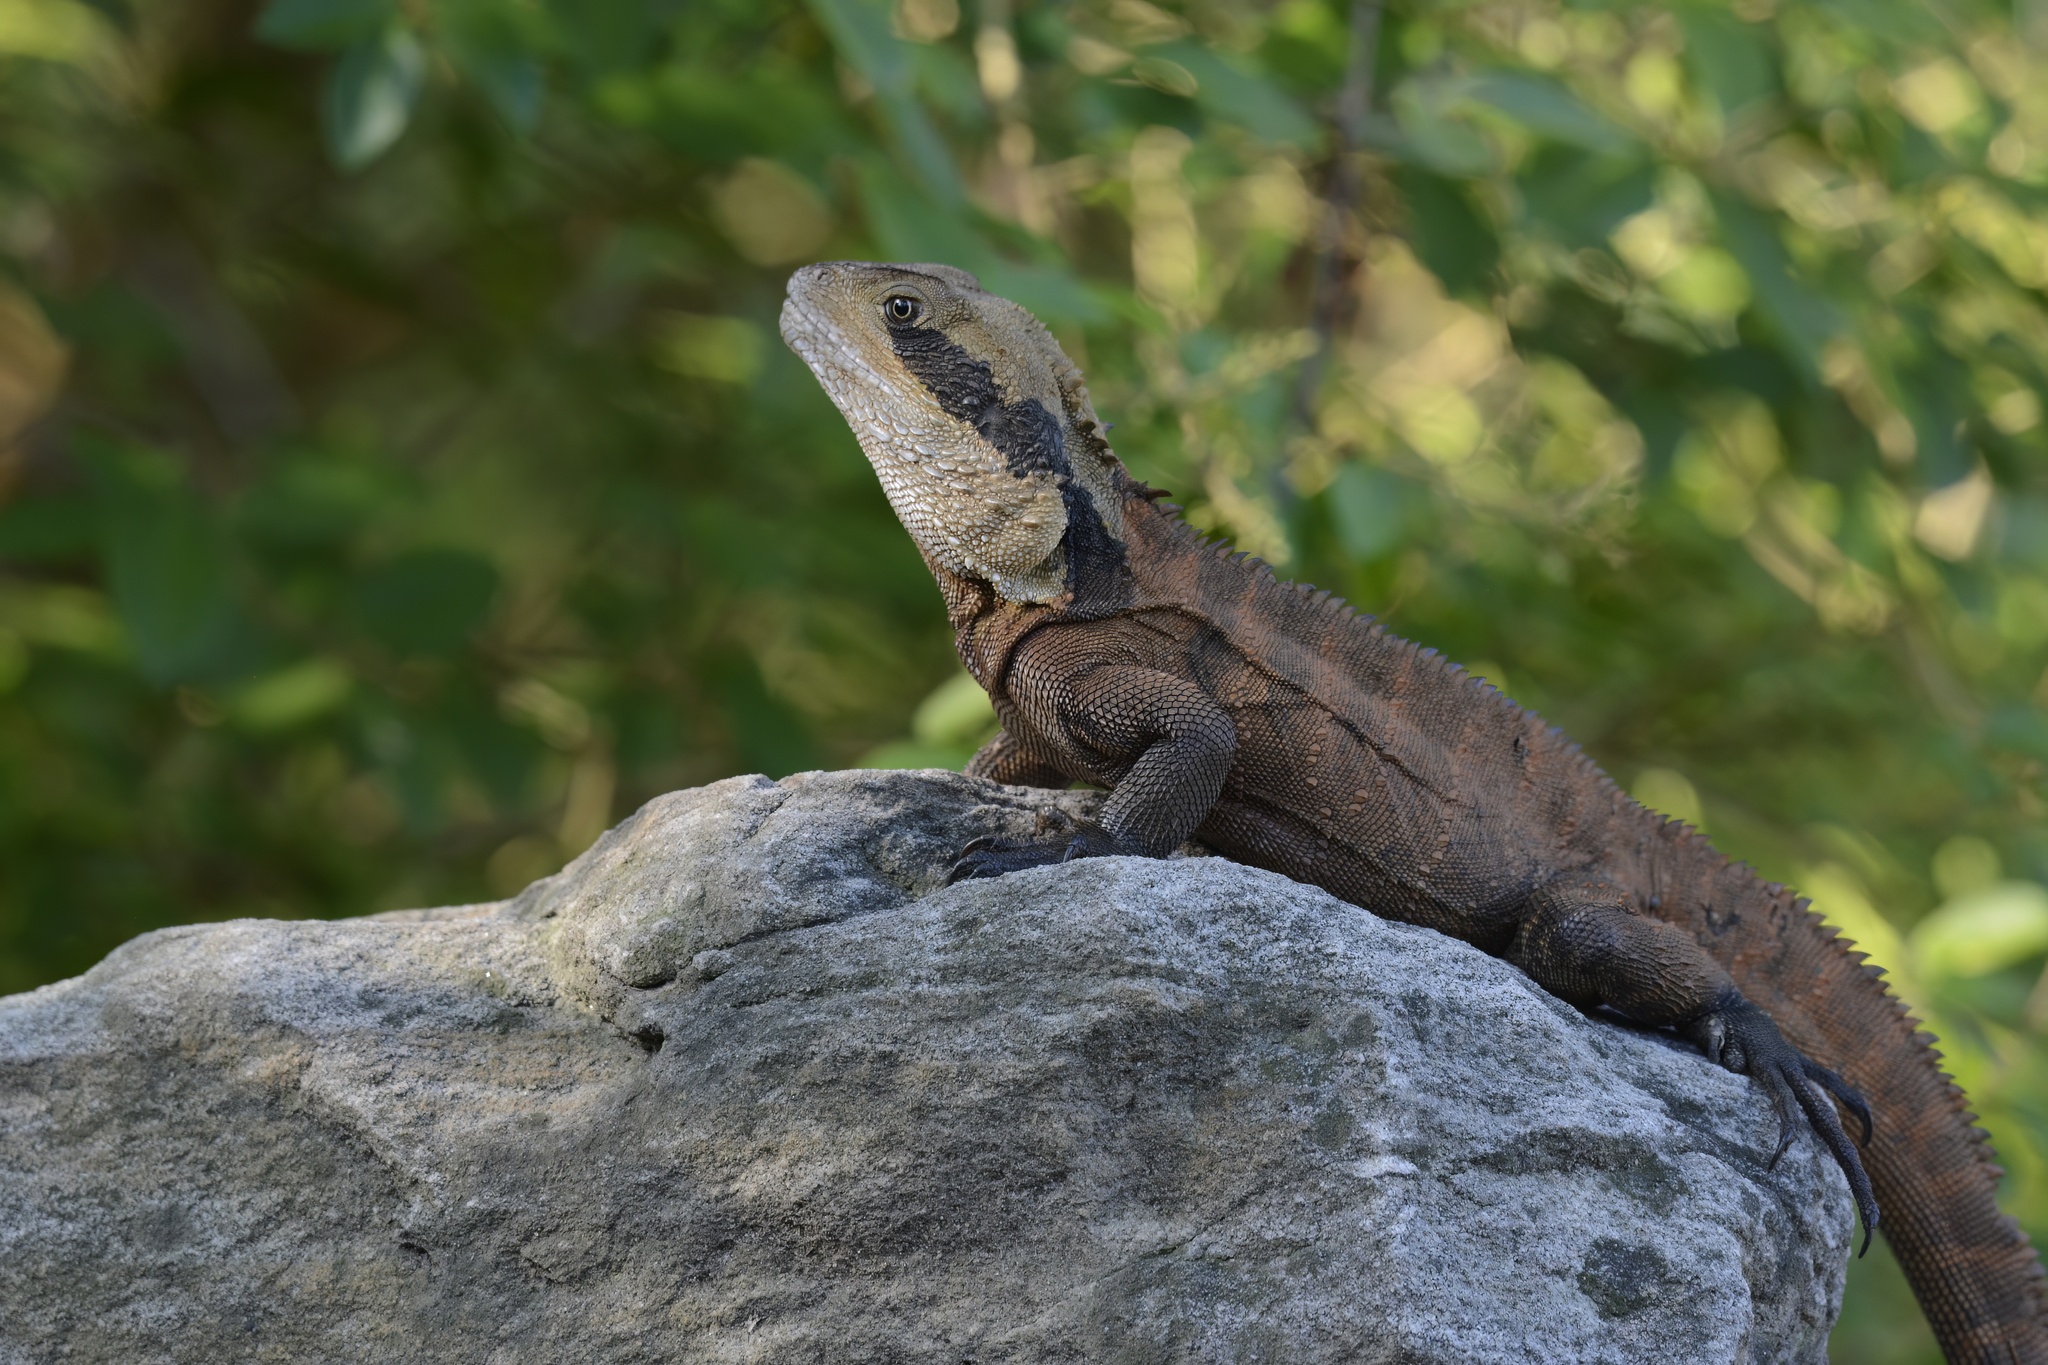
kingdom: Animalia
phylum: Chordata
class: Squamata
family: Agamidae
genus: Intellagama
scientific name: Intellagama lesueurii
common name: Eastern water dragon
